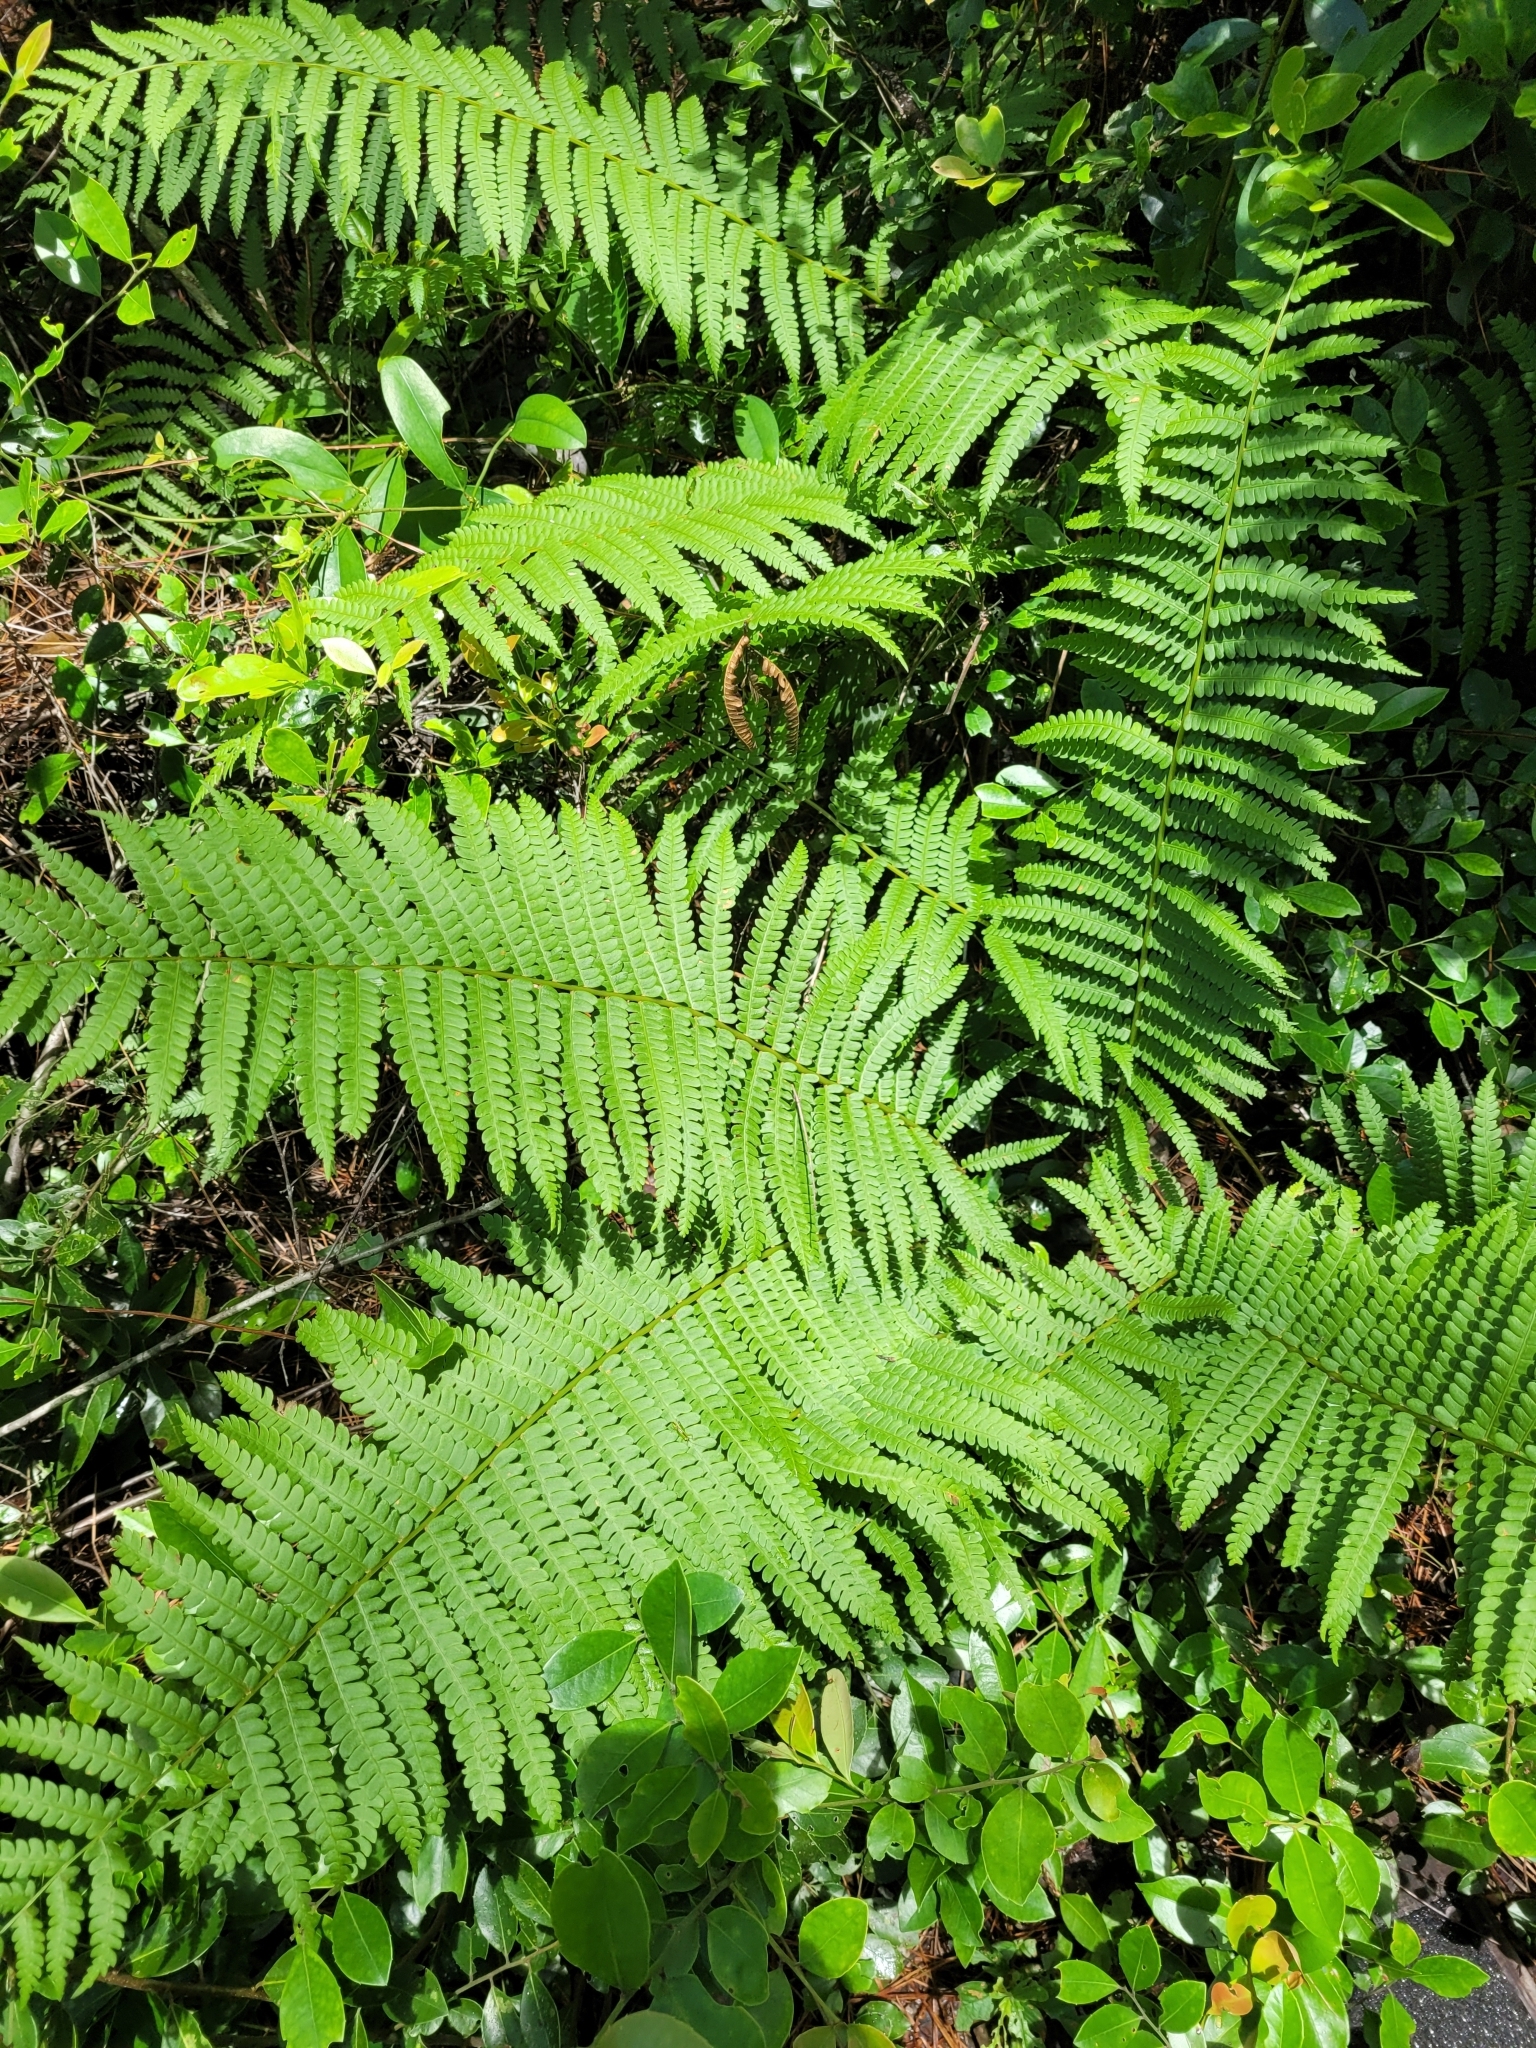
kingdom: Plantae
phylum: Tracheophyta
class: Polypodiopsida
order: Osmundales
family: Osmundaceae
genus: Osmundastrum
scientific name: Osmundastrum cinnamomeum
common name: Cinnamon fern
